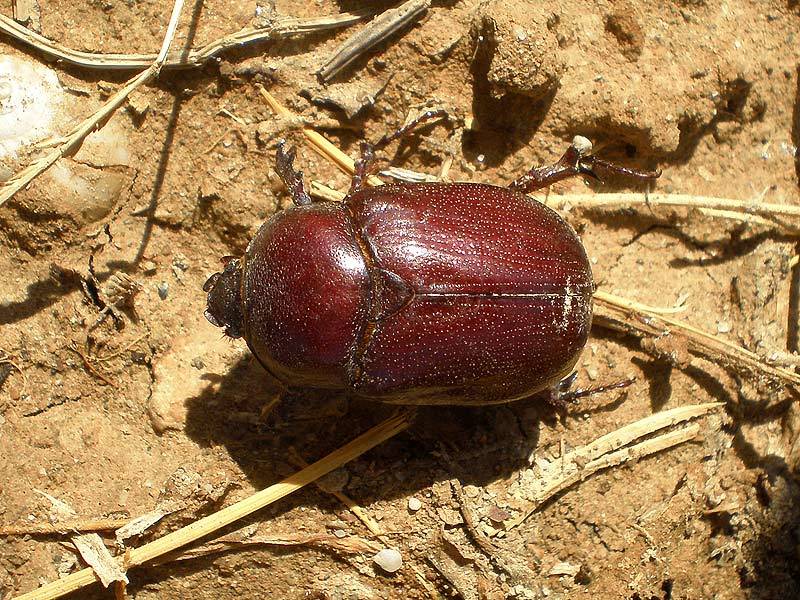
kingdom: Animalia
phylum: Arthropoda
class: Insecta
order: Coleoptera
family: Scarabaeidae
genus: Phyllognathus
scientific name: Phyllognathus excavatus
